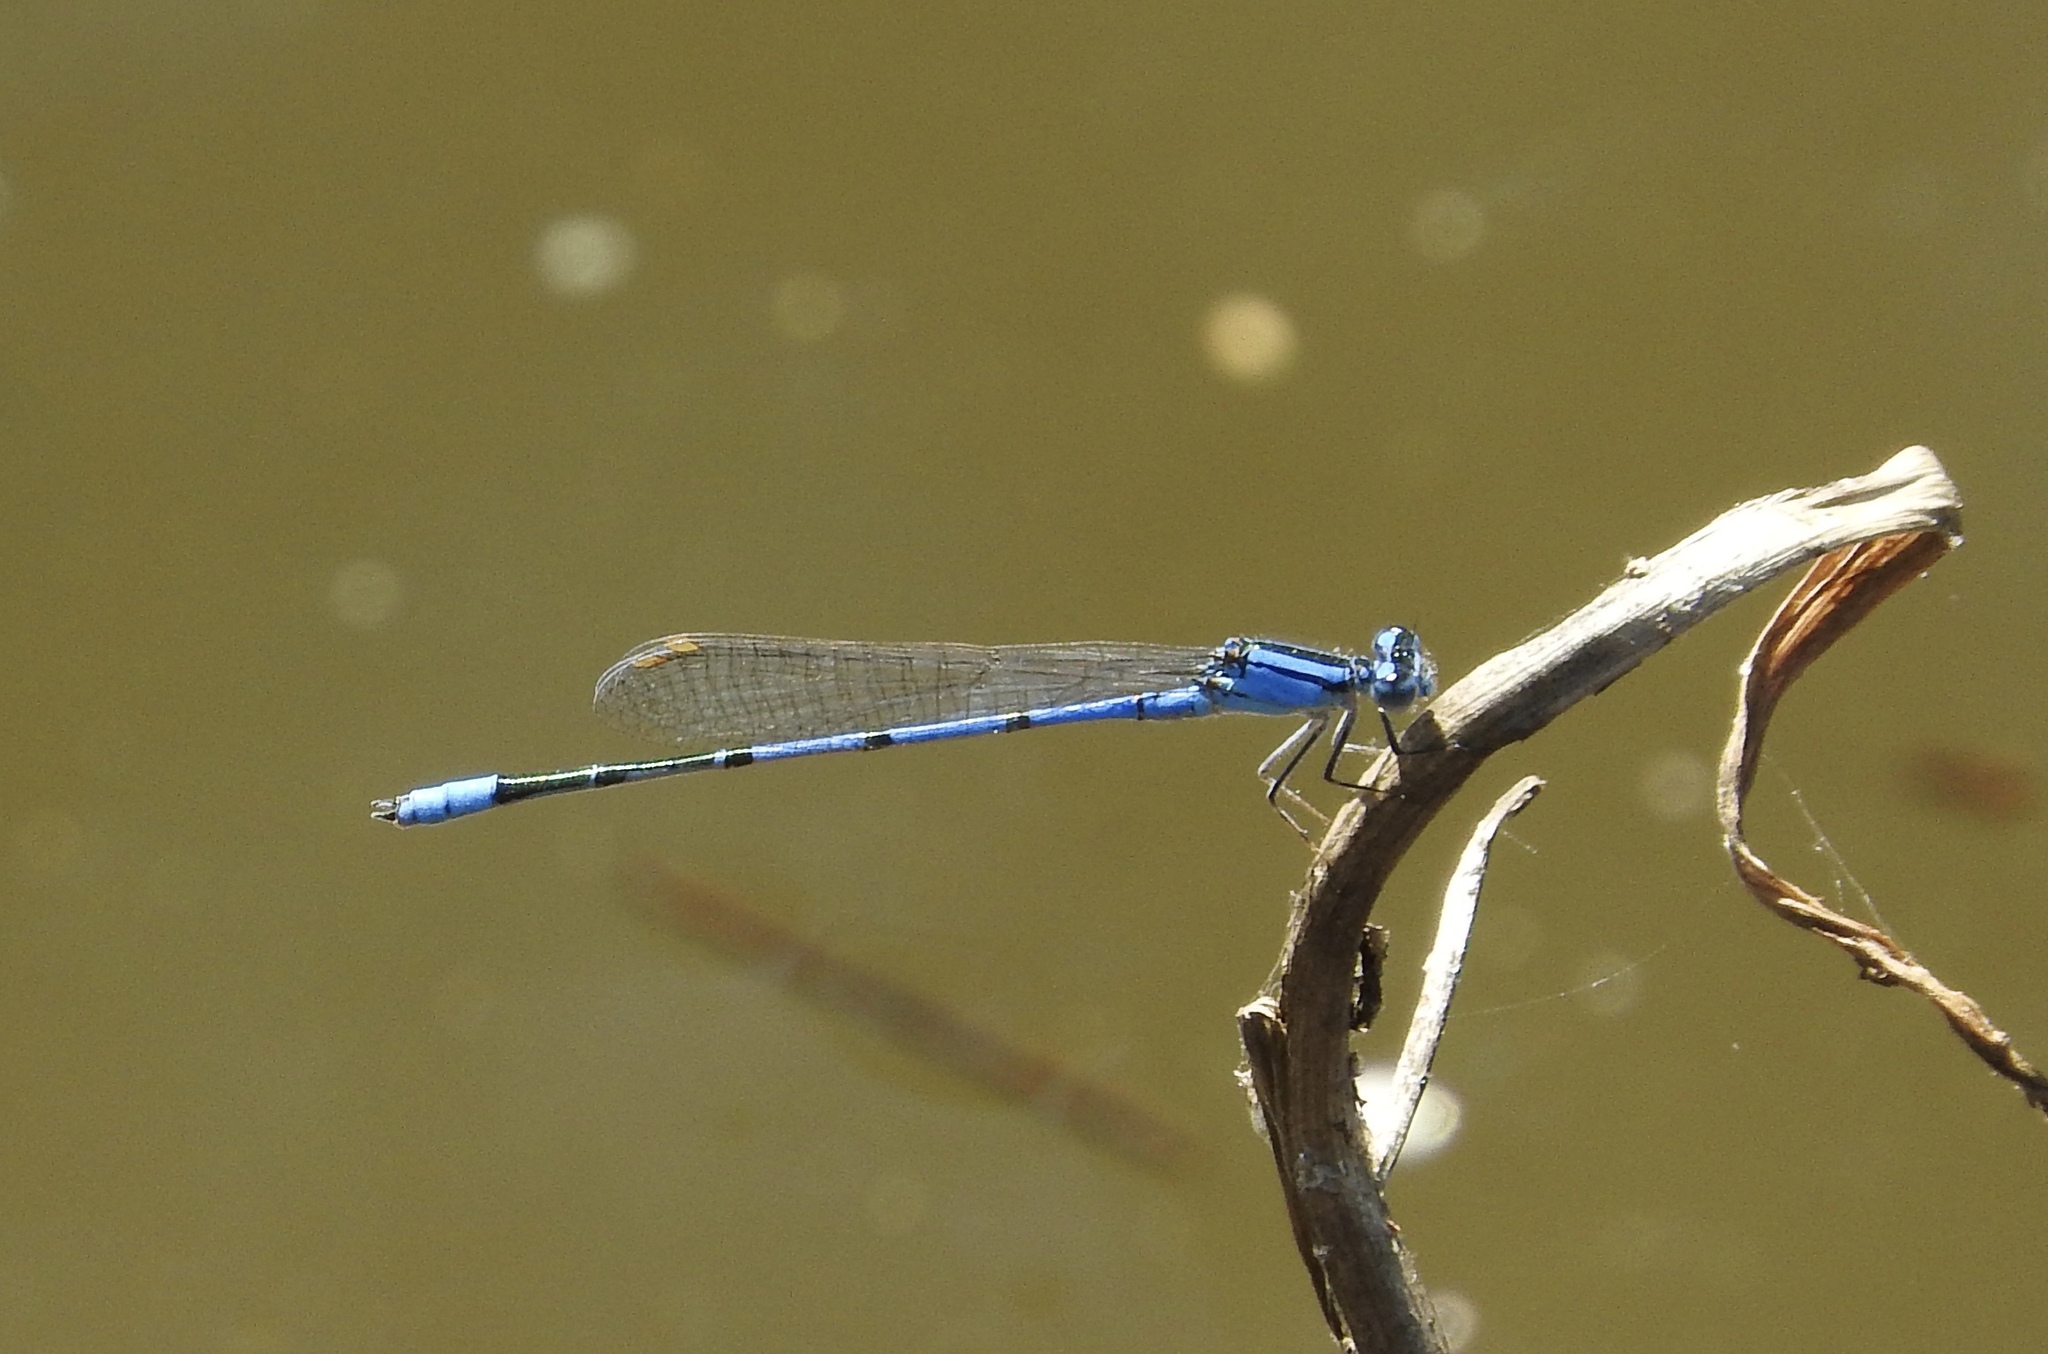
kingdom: Animalia
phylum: Arthropoda
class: Insecta
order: Odonata
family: Coenagrionidae
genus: Enallagma
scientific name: Enallagma semicirculare
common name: Claw-tipped bluet
